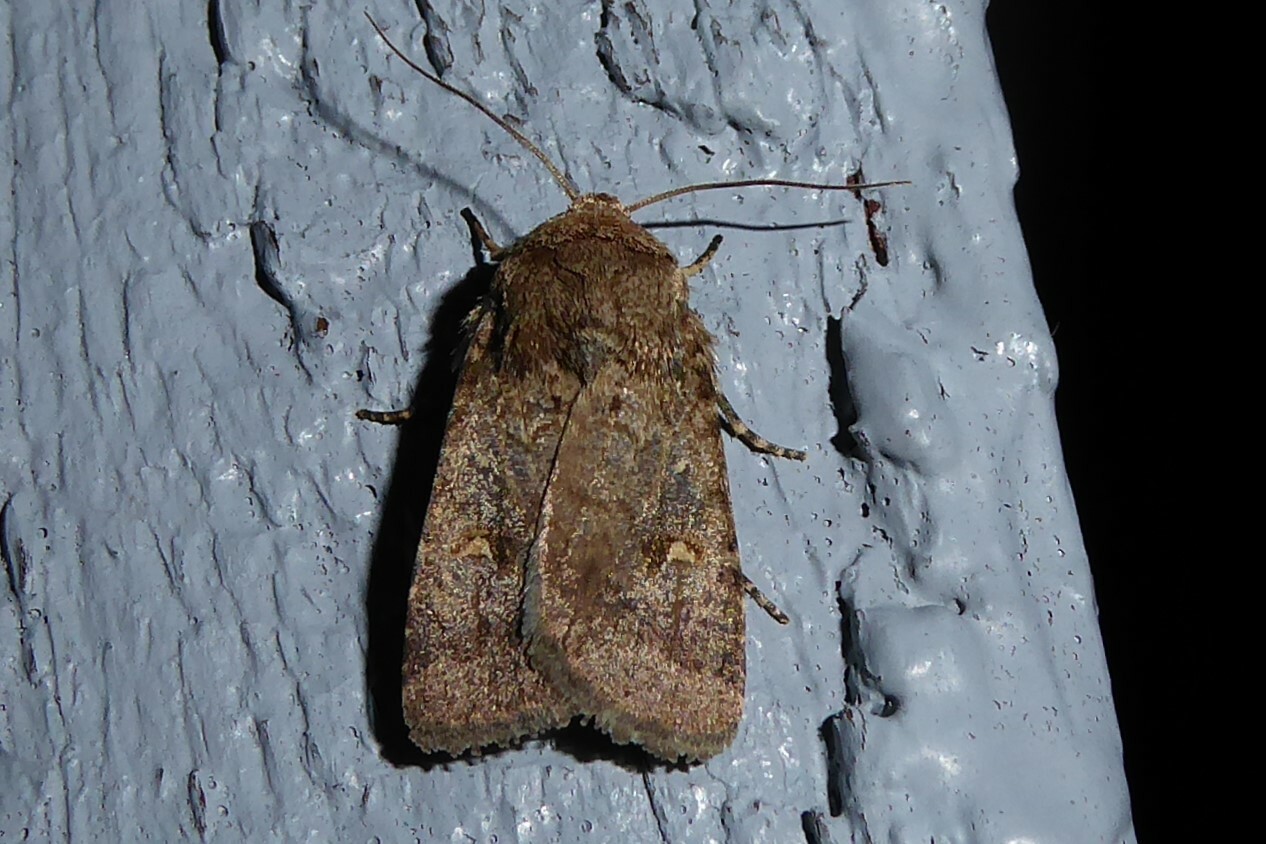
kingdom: Animalia
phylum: Arthropoda
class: Insecta
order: Lepidoptera
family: Noctuidae
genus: Proteuxoa
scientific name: Proteuxoa tetronycha
